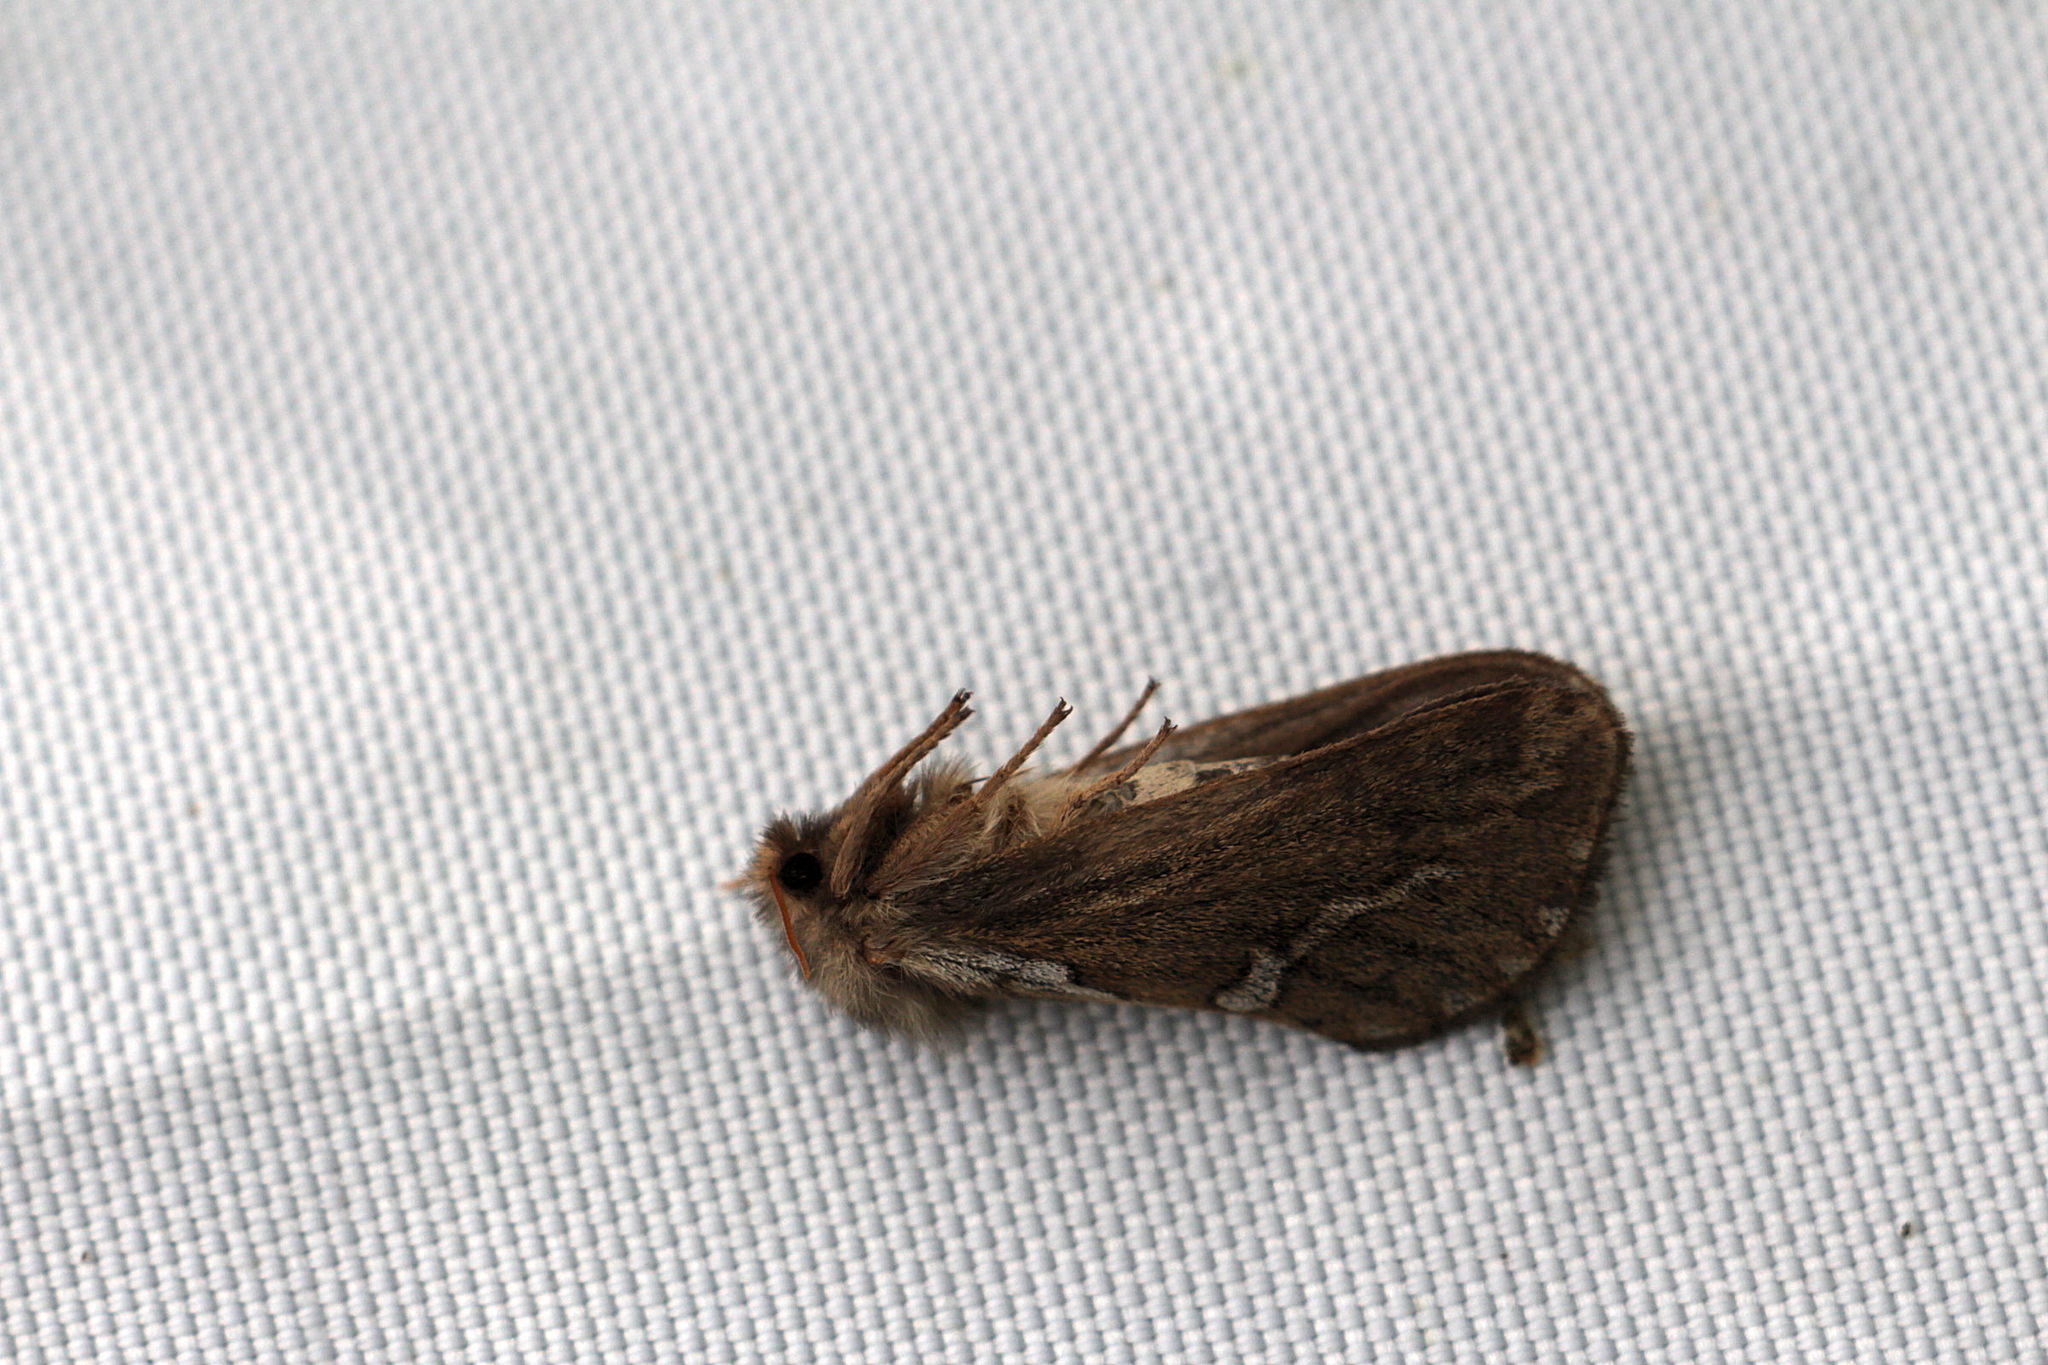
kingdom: Animalia
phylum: Arthropoda
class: Insecta
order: Lepidoptera
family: Hepialidae
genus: Korscheltellus
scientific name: Korscheltellus lupulina
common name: Common swift
